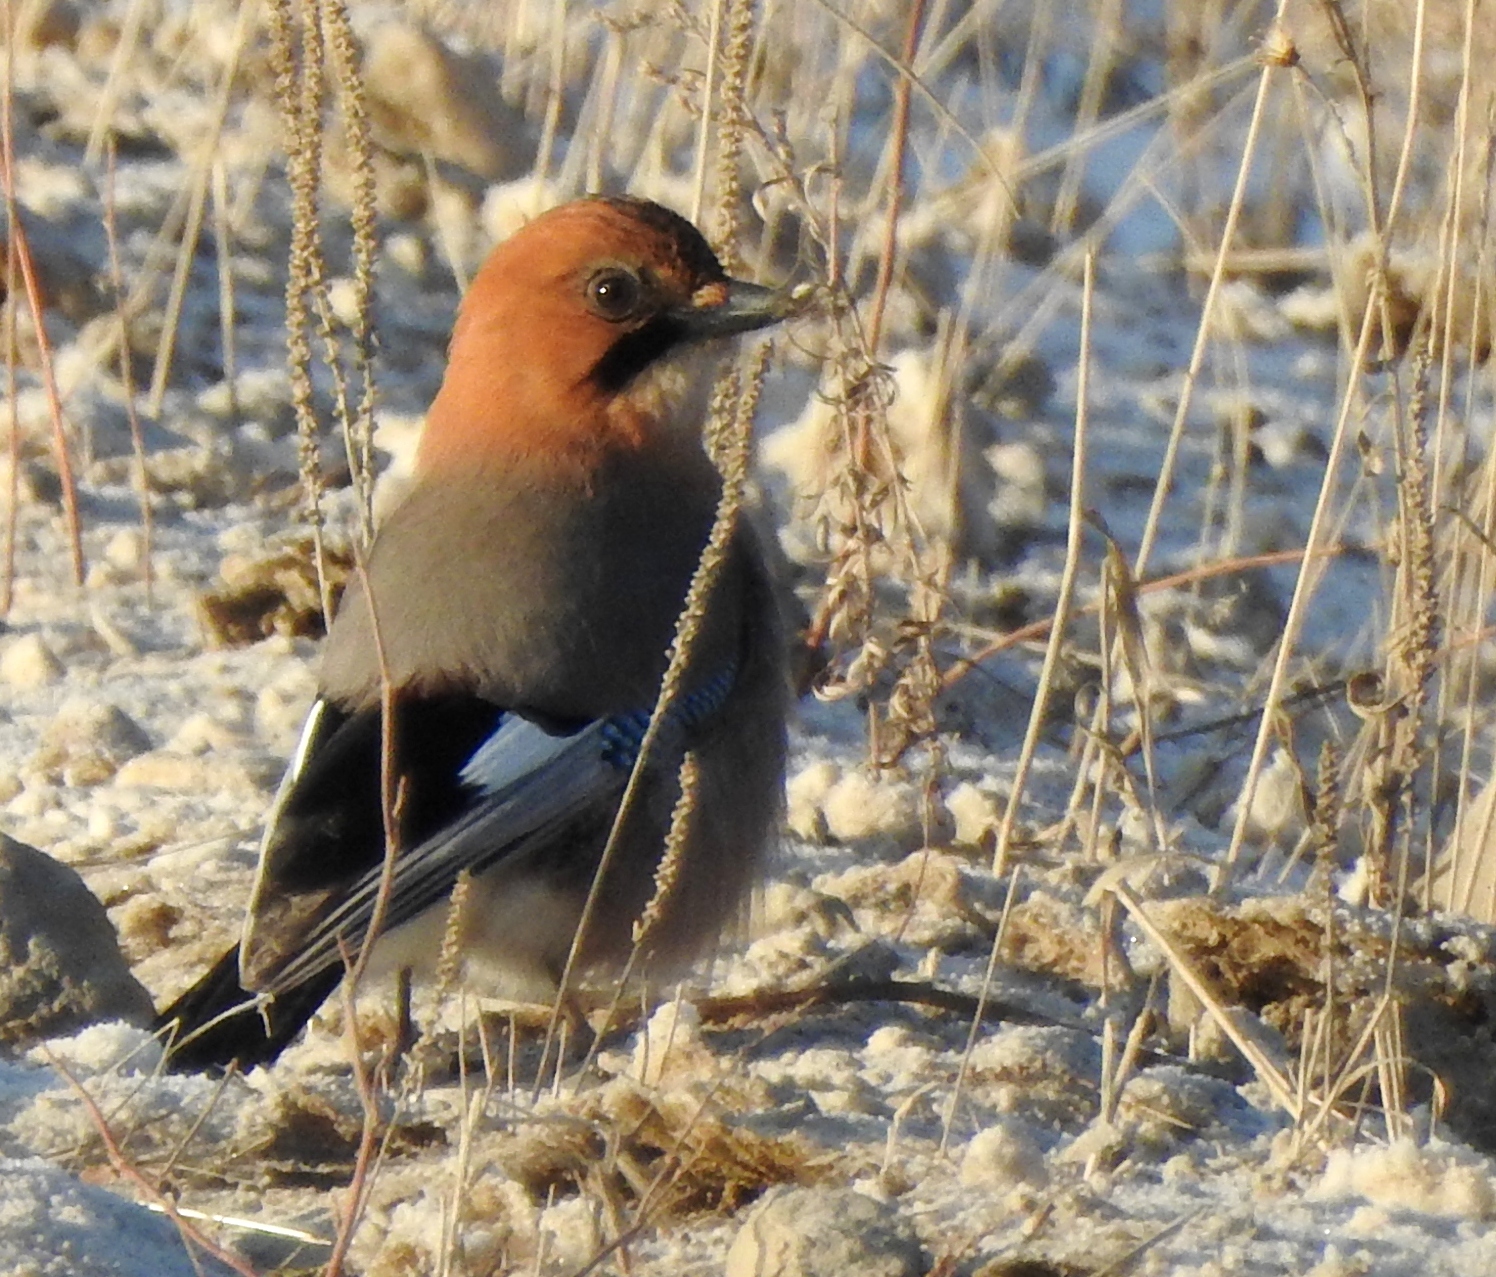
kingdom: Animalia
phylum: Chordata
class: Aves
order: Passeriformes
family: Corvidae
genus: Garrulus
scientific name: Garrulus glandarius
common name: Eurasian jay
